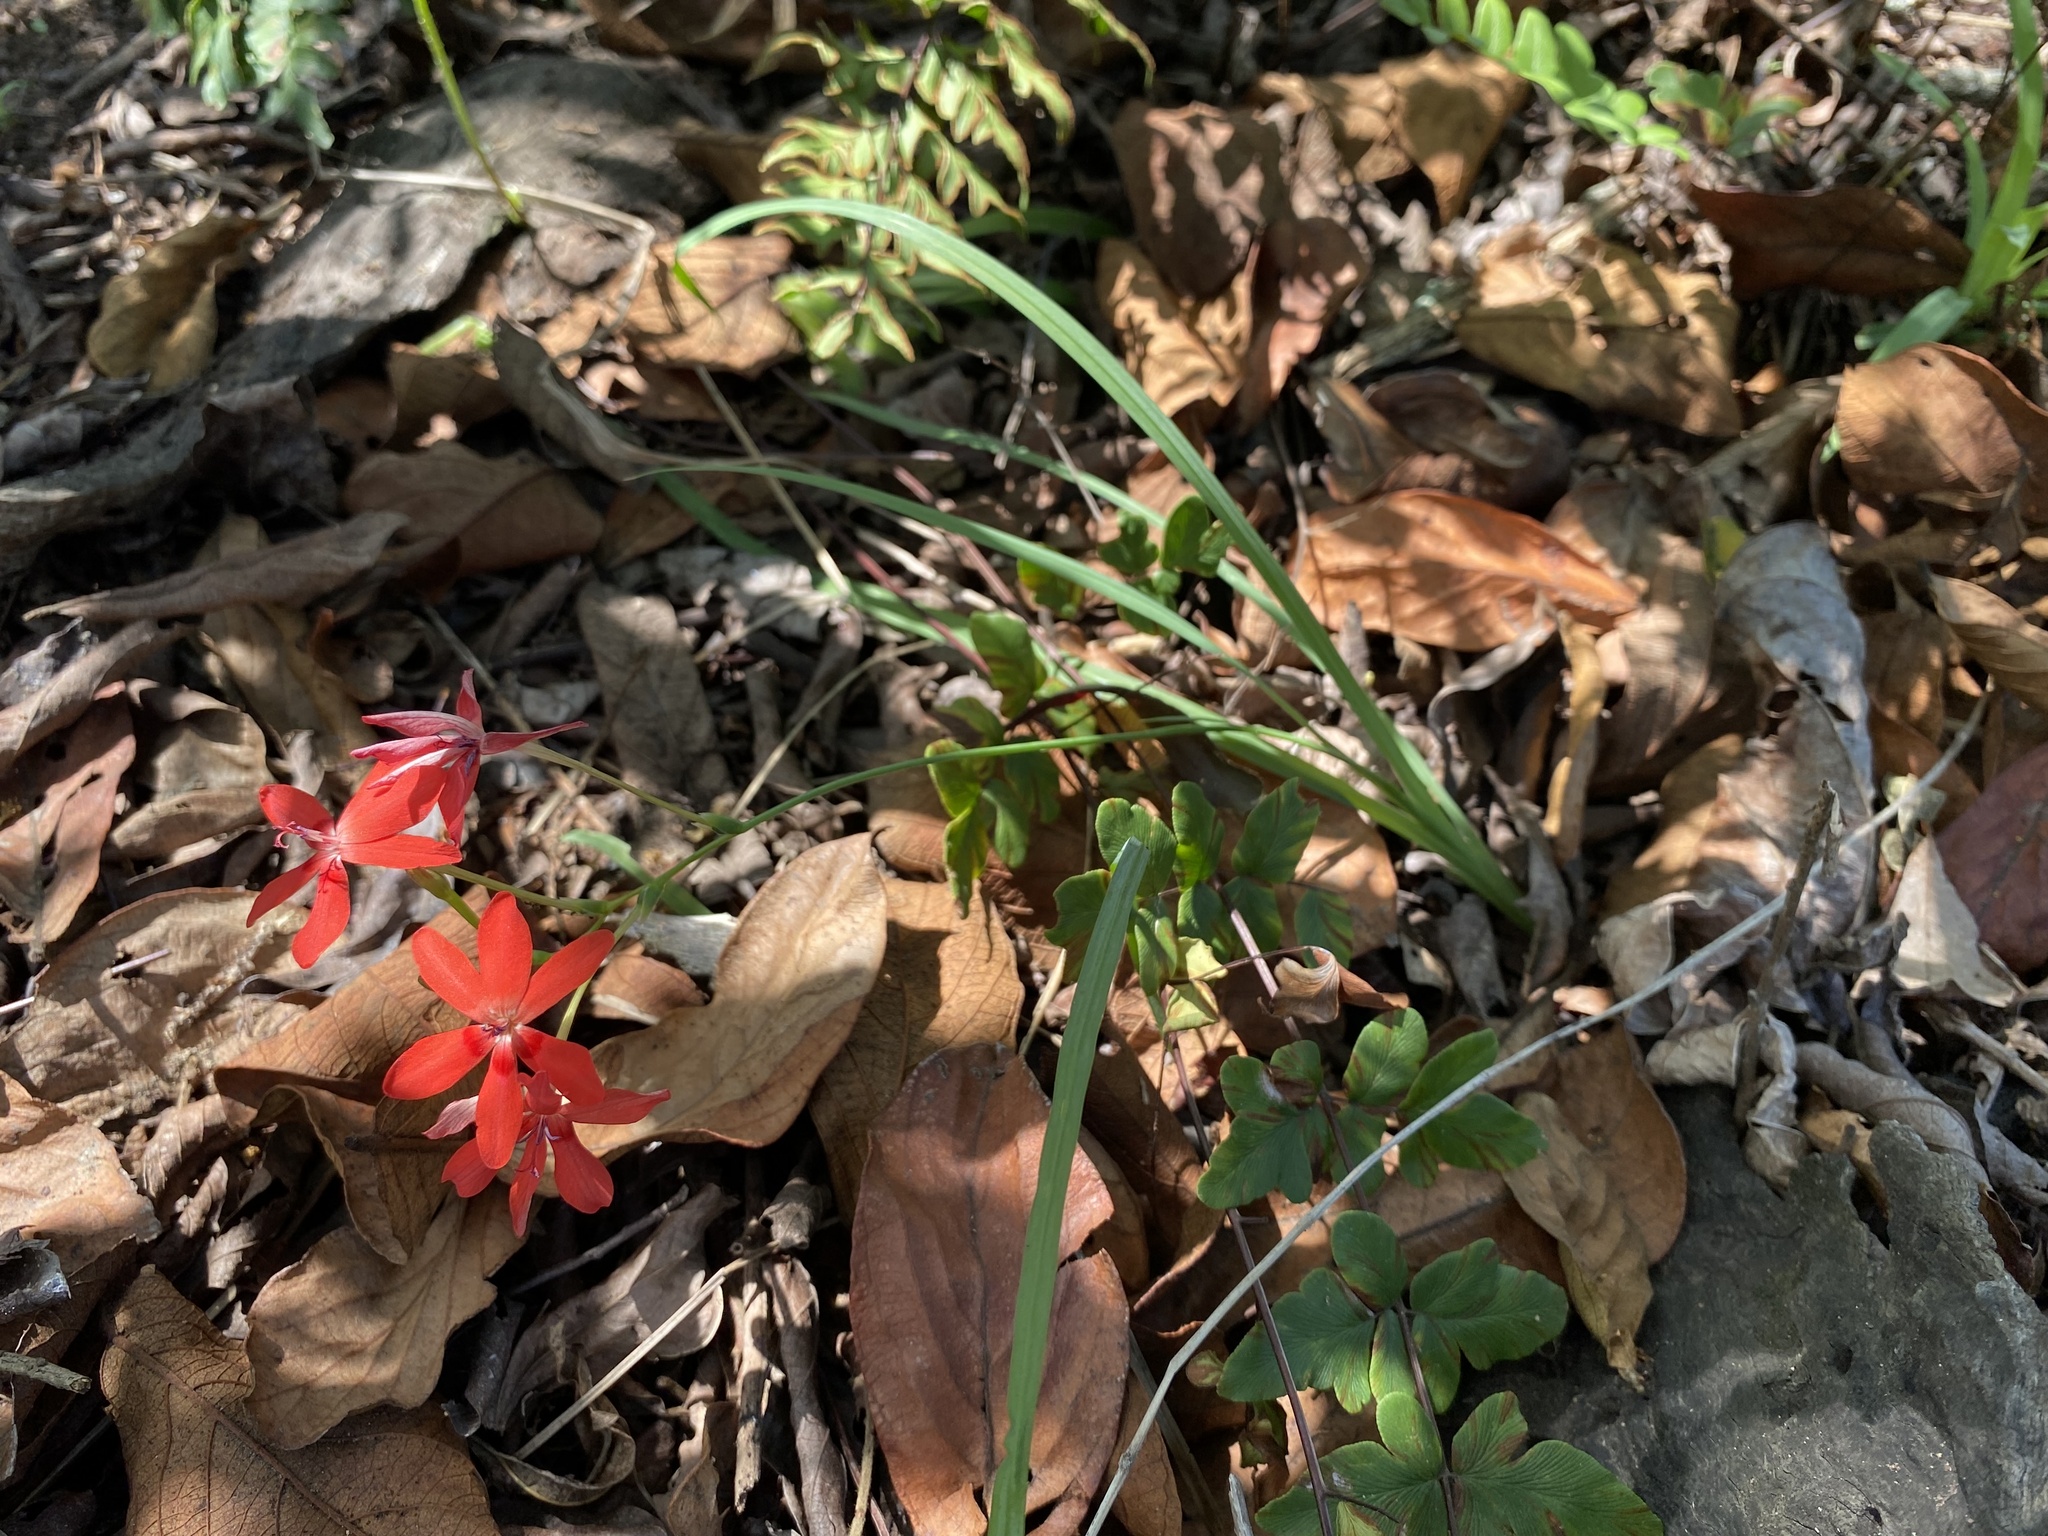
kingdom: Plantae
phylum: Tracheophyta
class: Liliopsida
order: Asparagales
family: Iridaceae
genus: Freesia
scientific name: Freesia laxa
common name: False freesia
